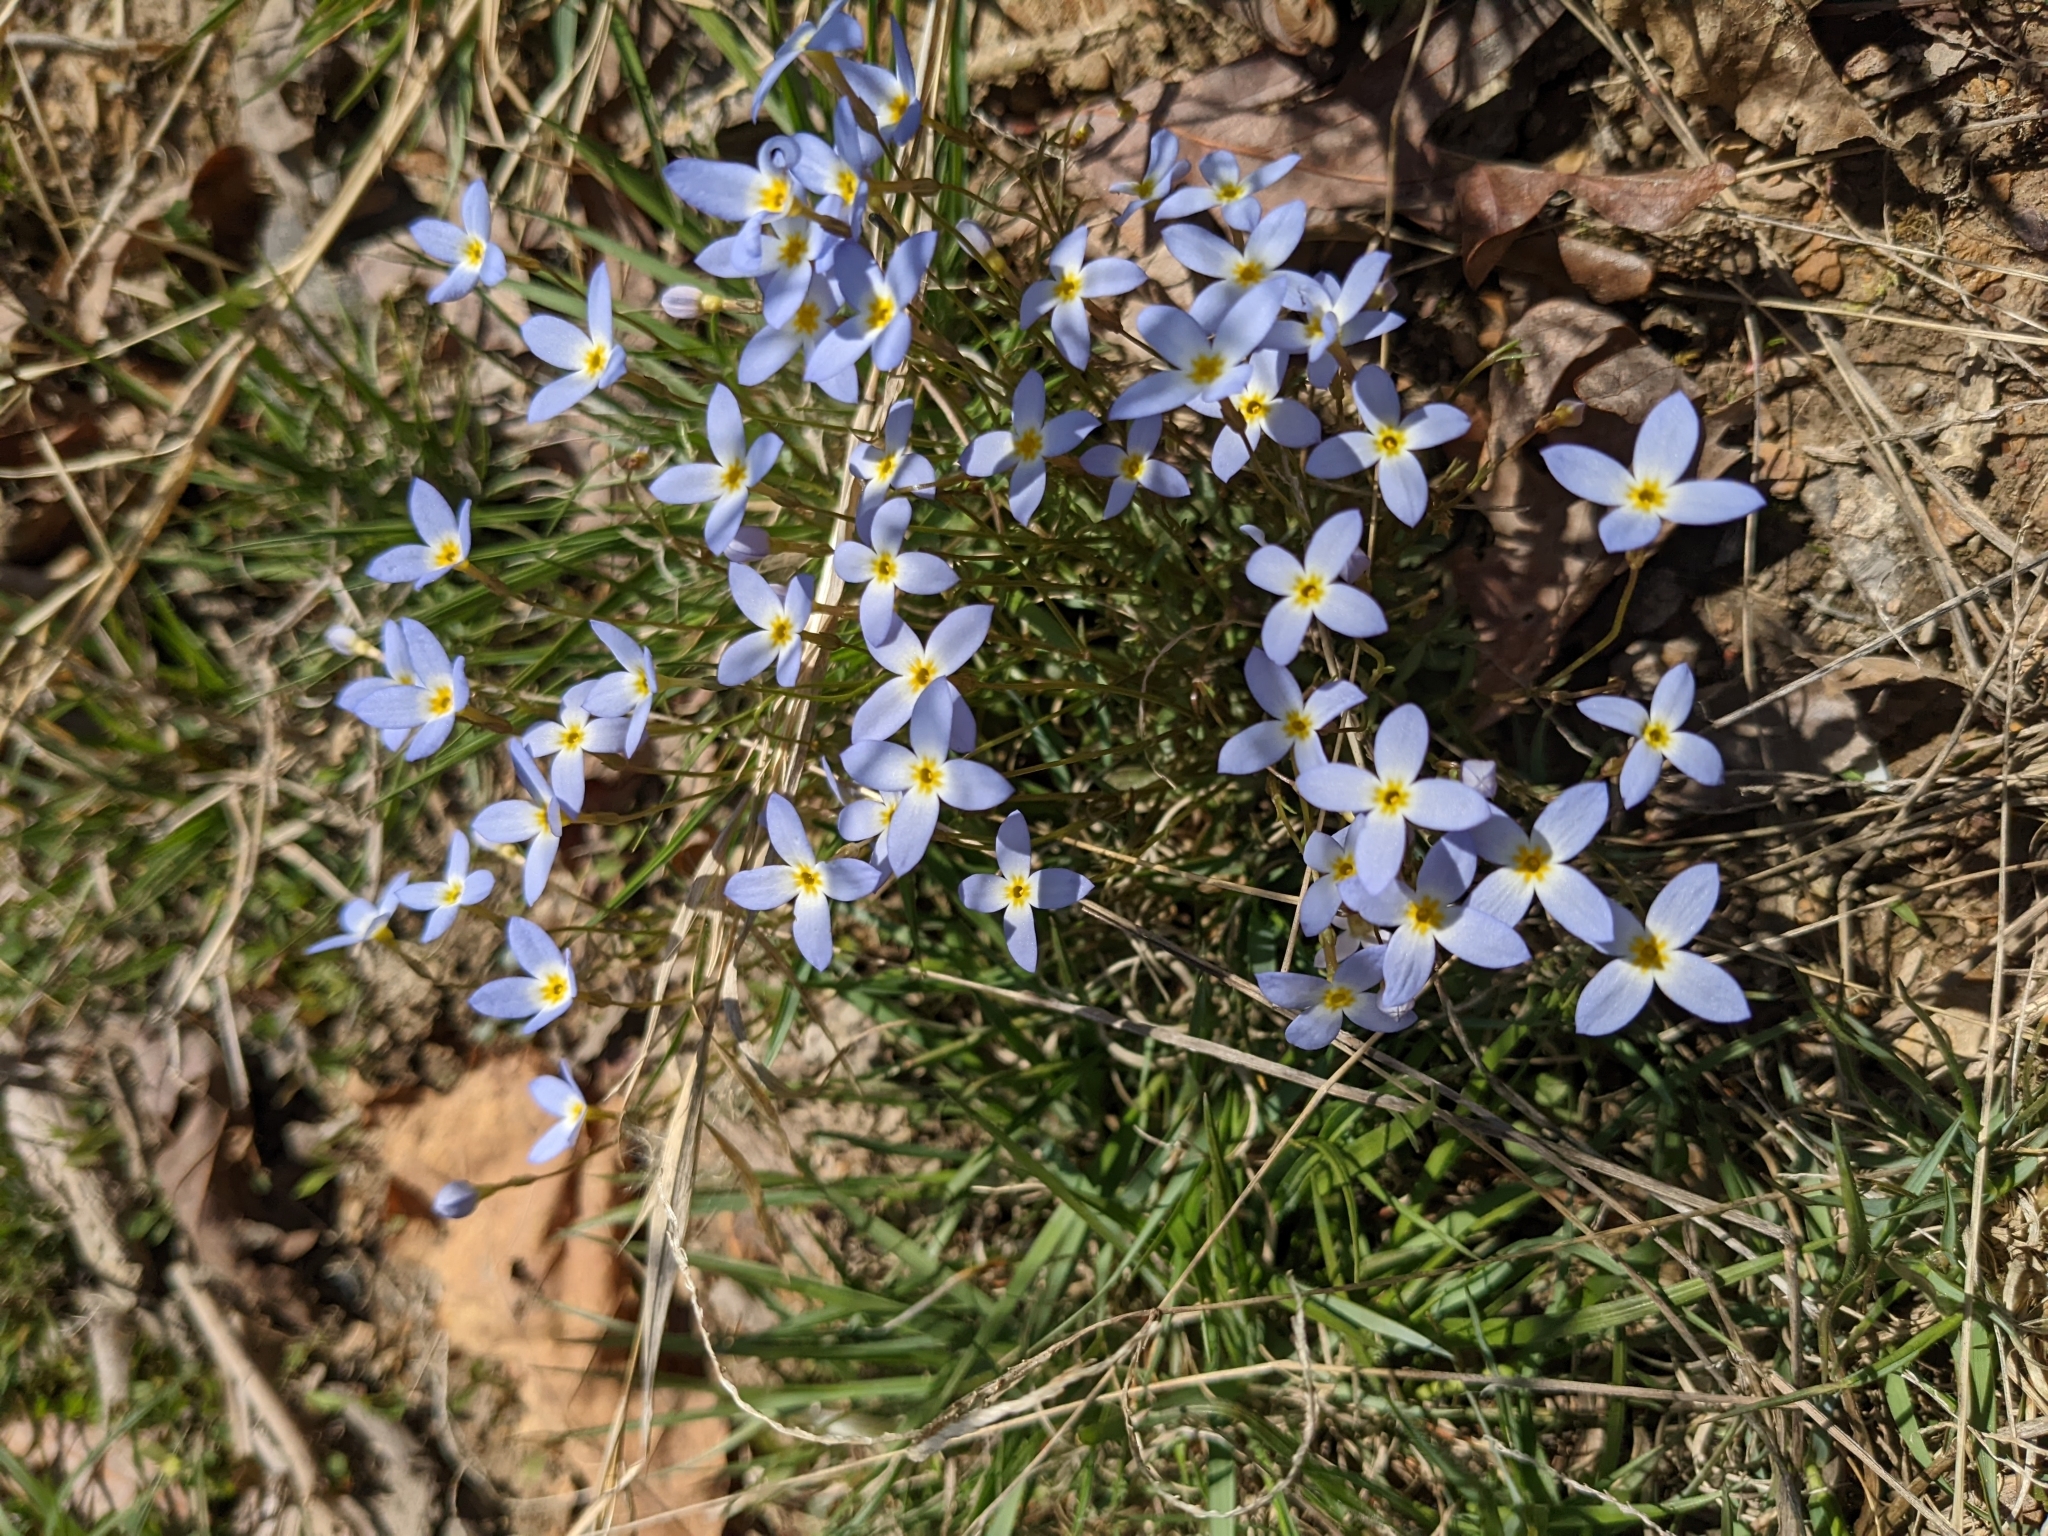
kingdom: Plantae
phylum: Tracheophyta
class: Magnoliopsida
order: Gentianales
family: Rubiaceae
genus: Houstonia
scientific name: Houstonia caerulea
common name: Bluets
